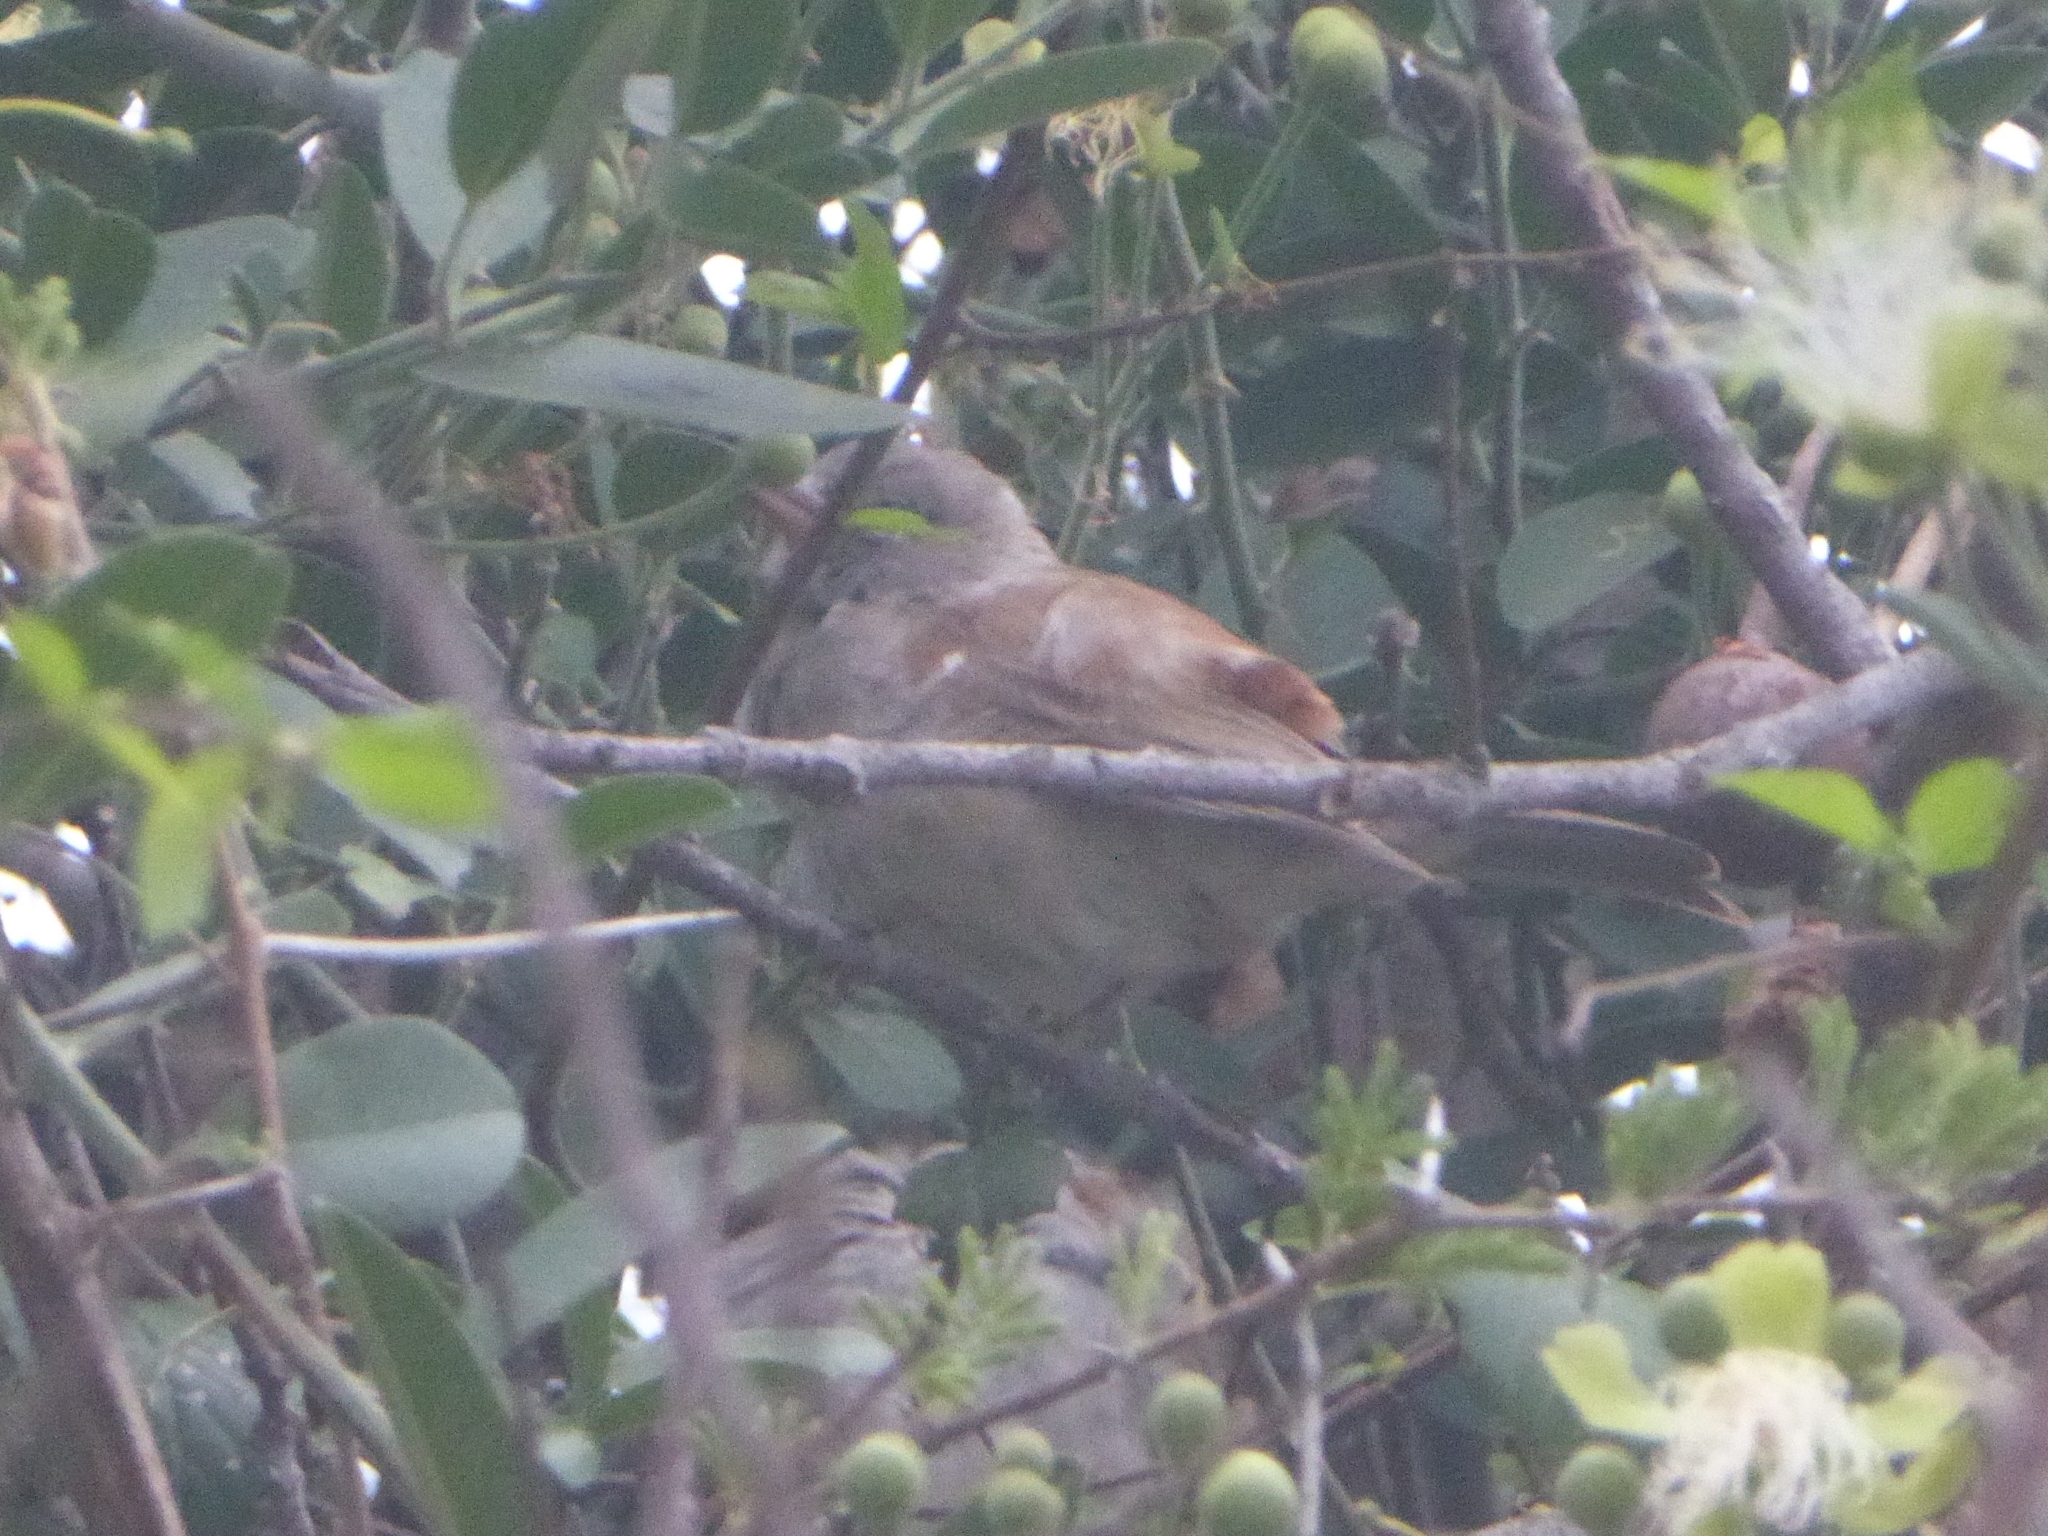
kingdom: Animalia
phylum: Chordata
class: Aves
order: Passeriformes
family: Passeridae
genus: Passer
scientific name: Passer diffusus
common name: Southern grey-headed sparrow
